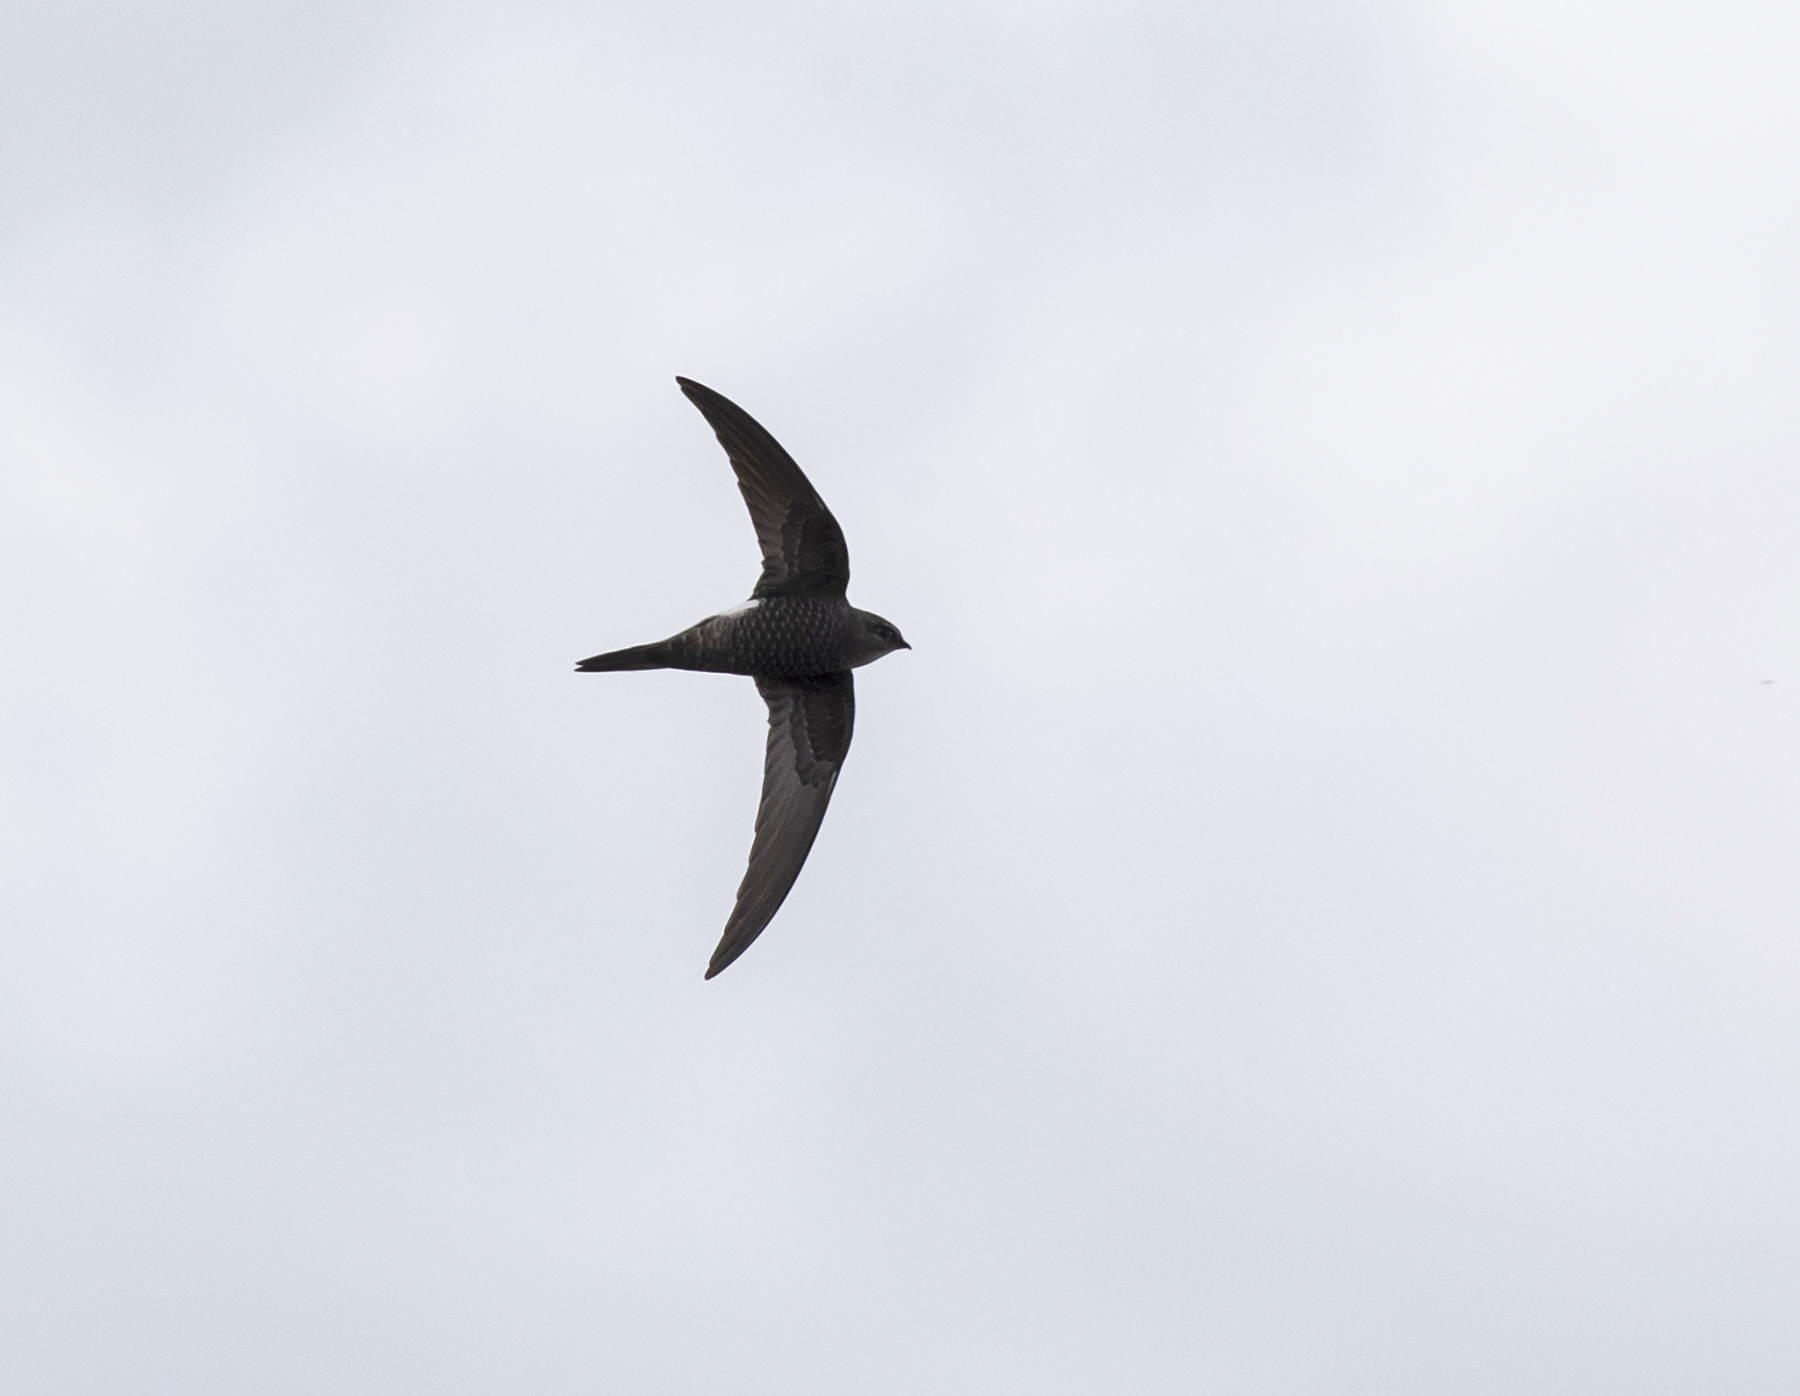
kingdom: Animalia
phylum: Chordata
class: Aves
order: Apodiformes
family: Apodidae
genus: Apus
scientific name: Apus pacificus
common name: Pacific swift
